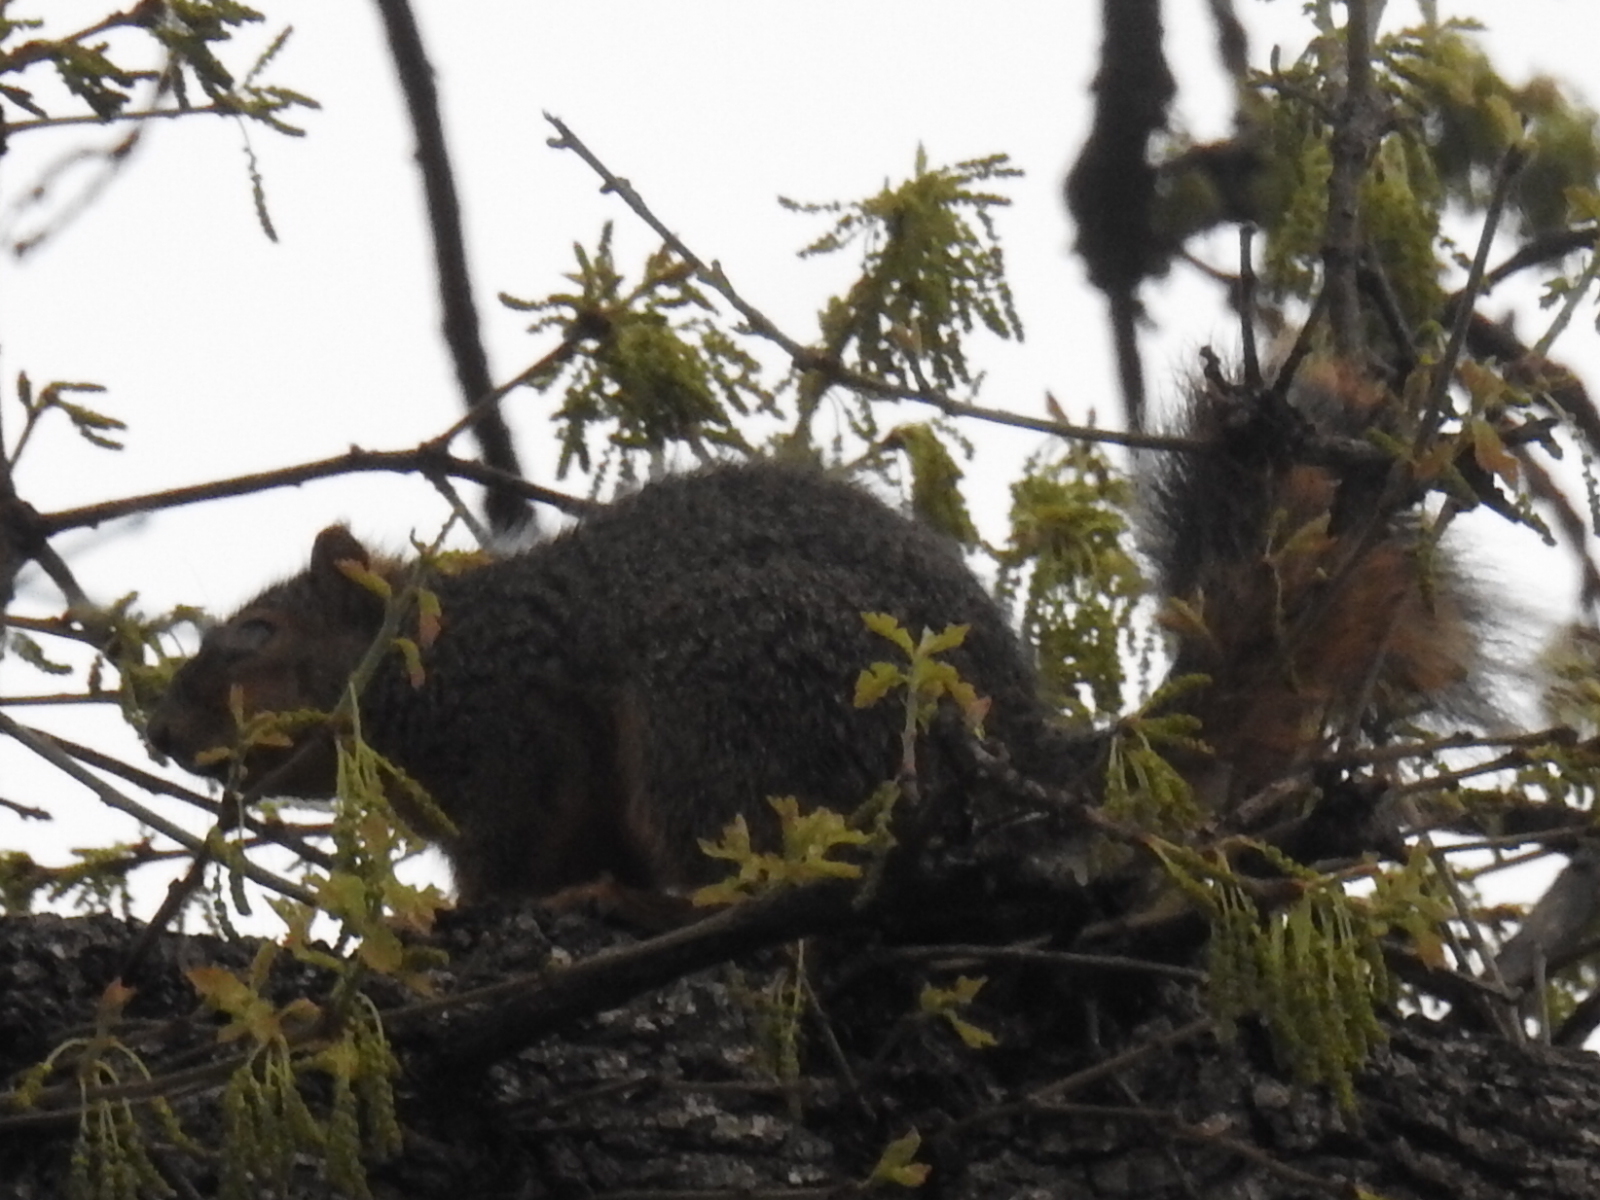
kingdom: Animalia
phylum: Chordata
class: Mammalia
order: Rodentia
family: Sciuridae
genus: Sciurus
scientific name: Sciurus niger
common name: Fox squirrel
